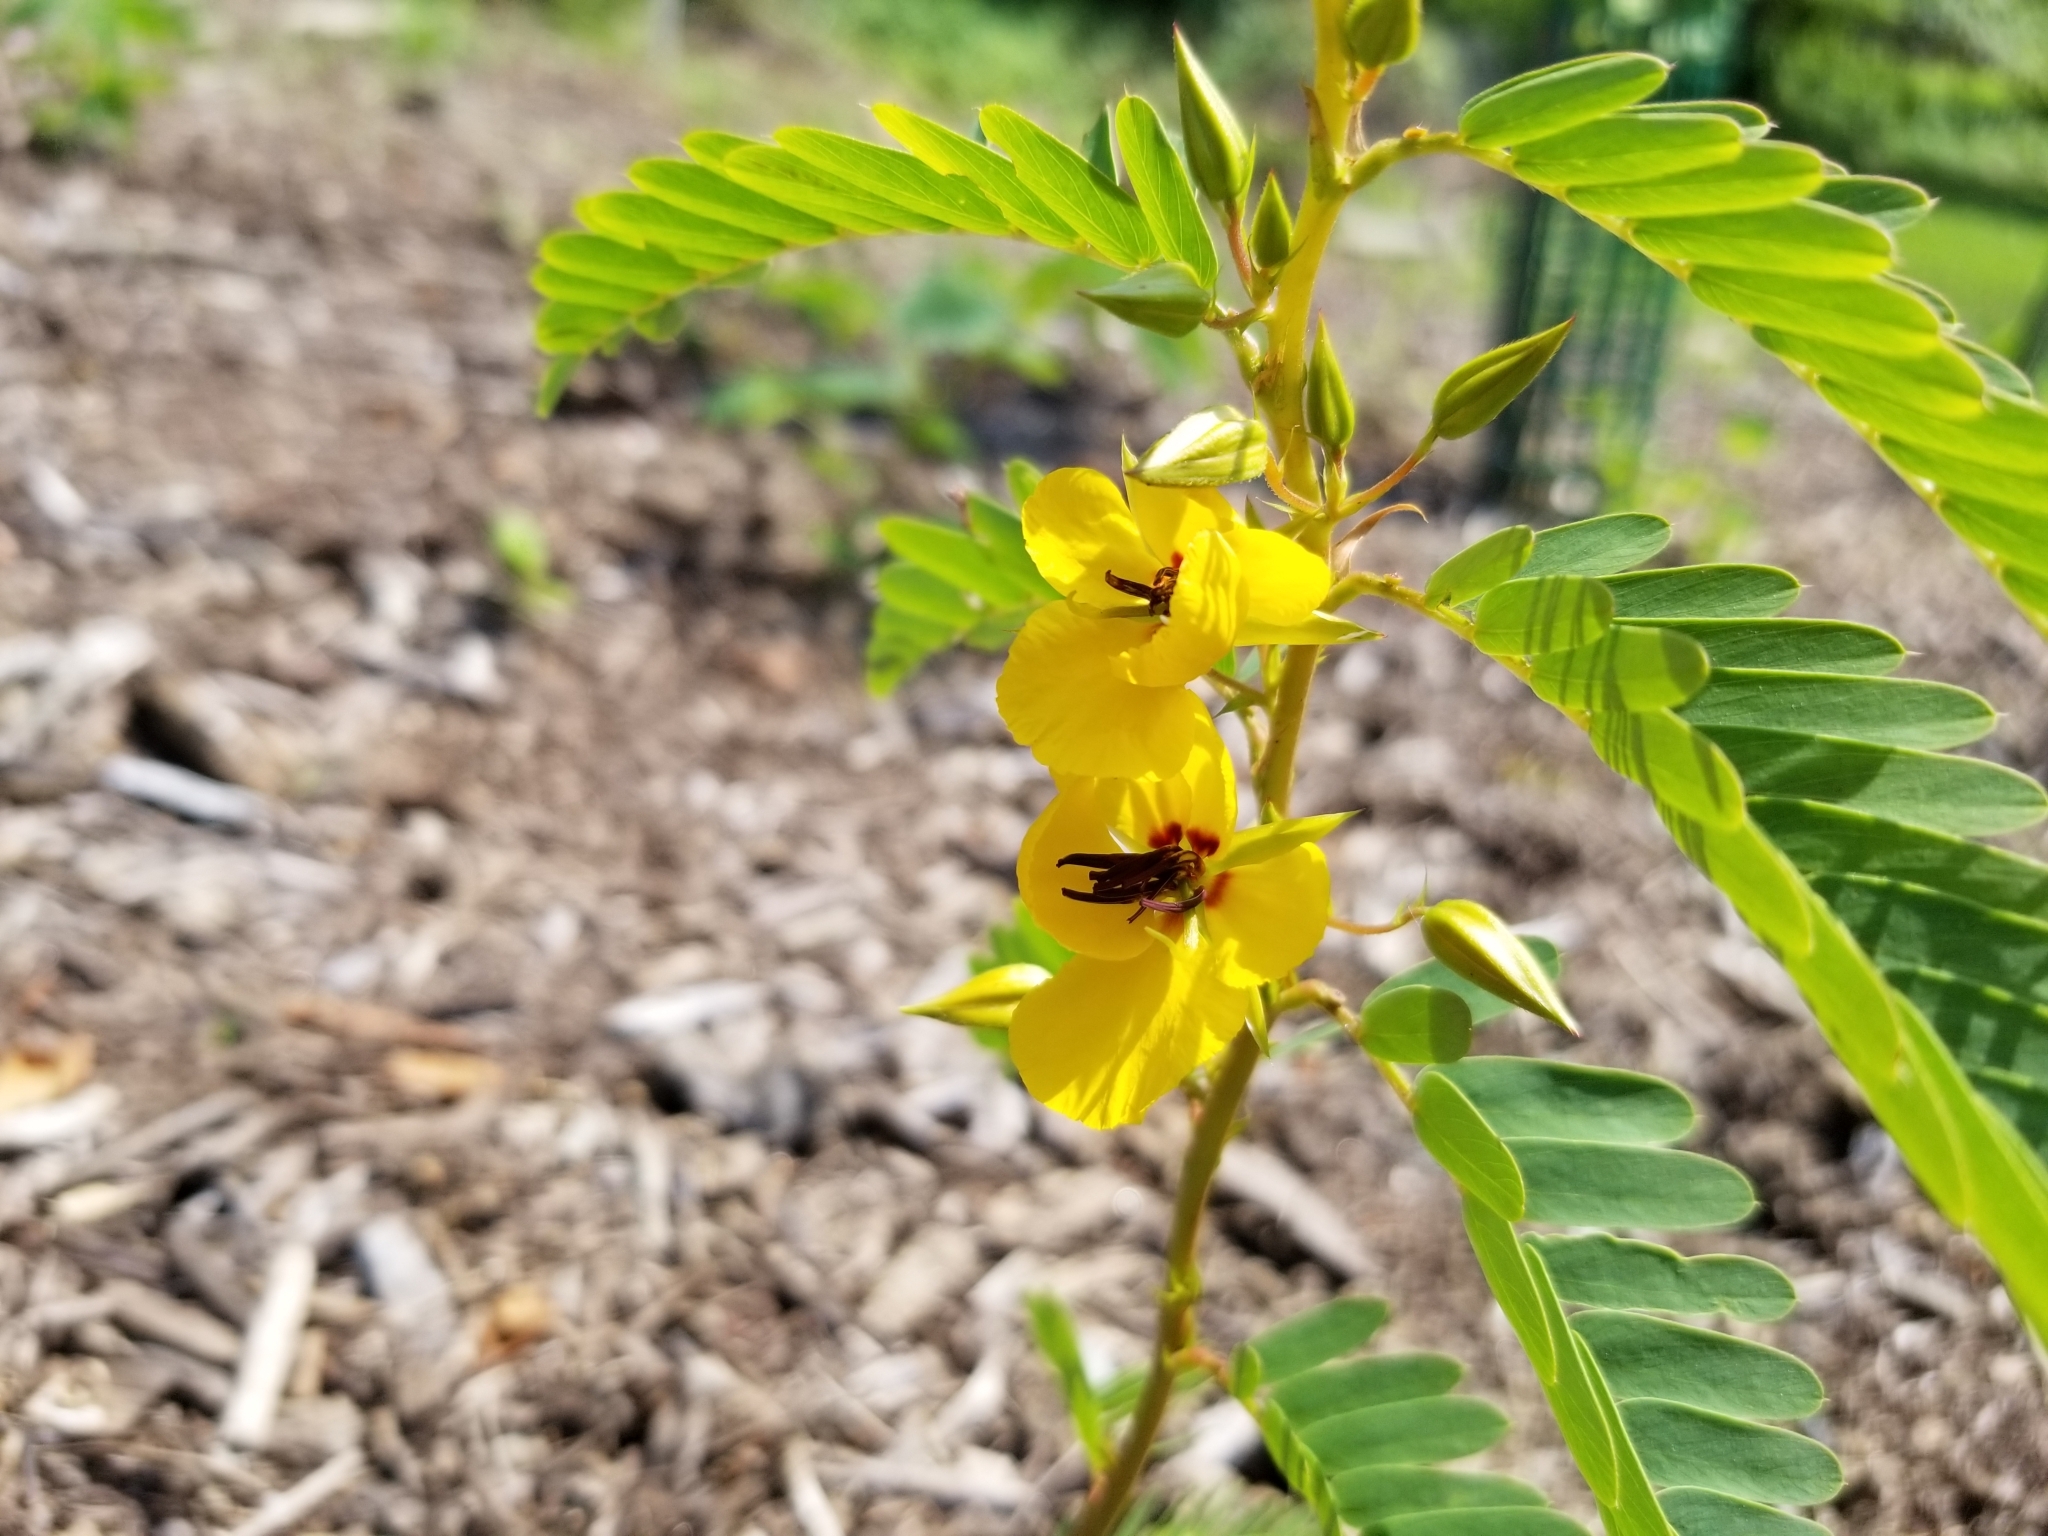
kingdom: Plantae
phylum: Tracheophyta
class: Magnoliopsida
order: Fabales
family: Fabaceae
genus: Chamaecrista
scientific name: Chamaecrista fasciculata
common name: Golden cassia
